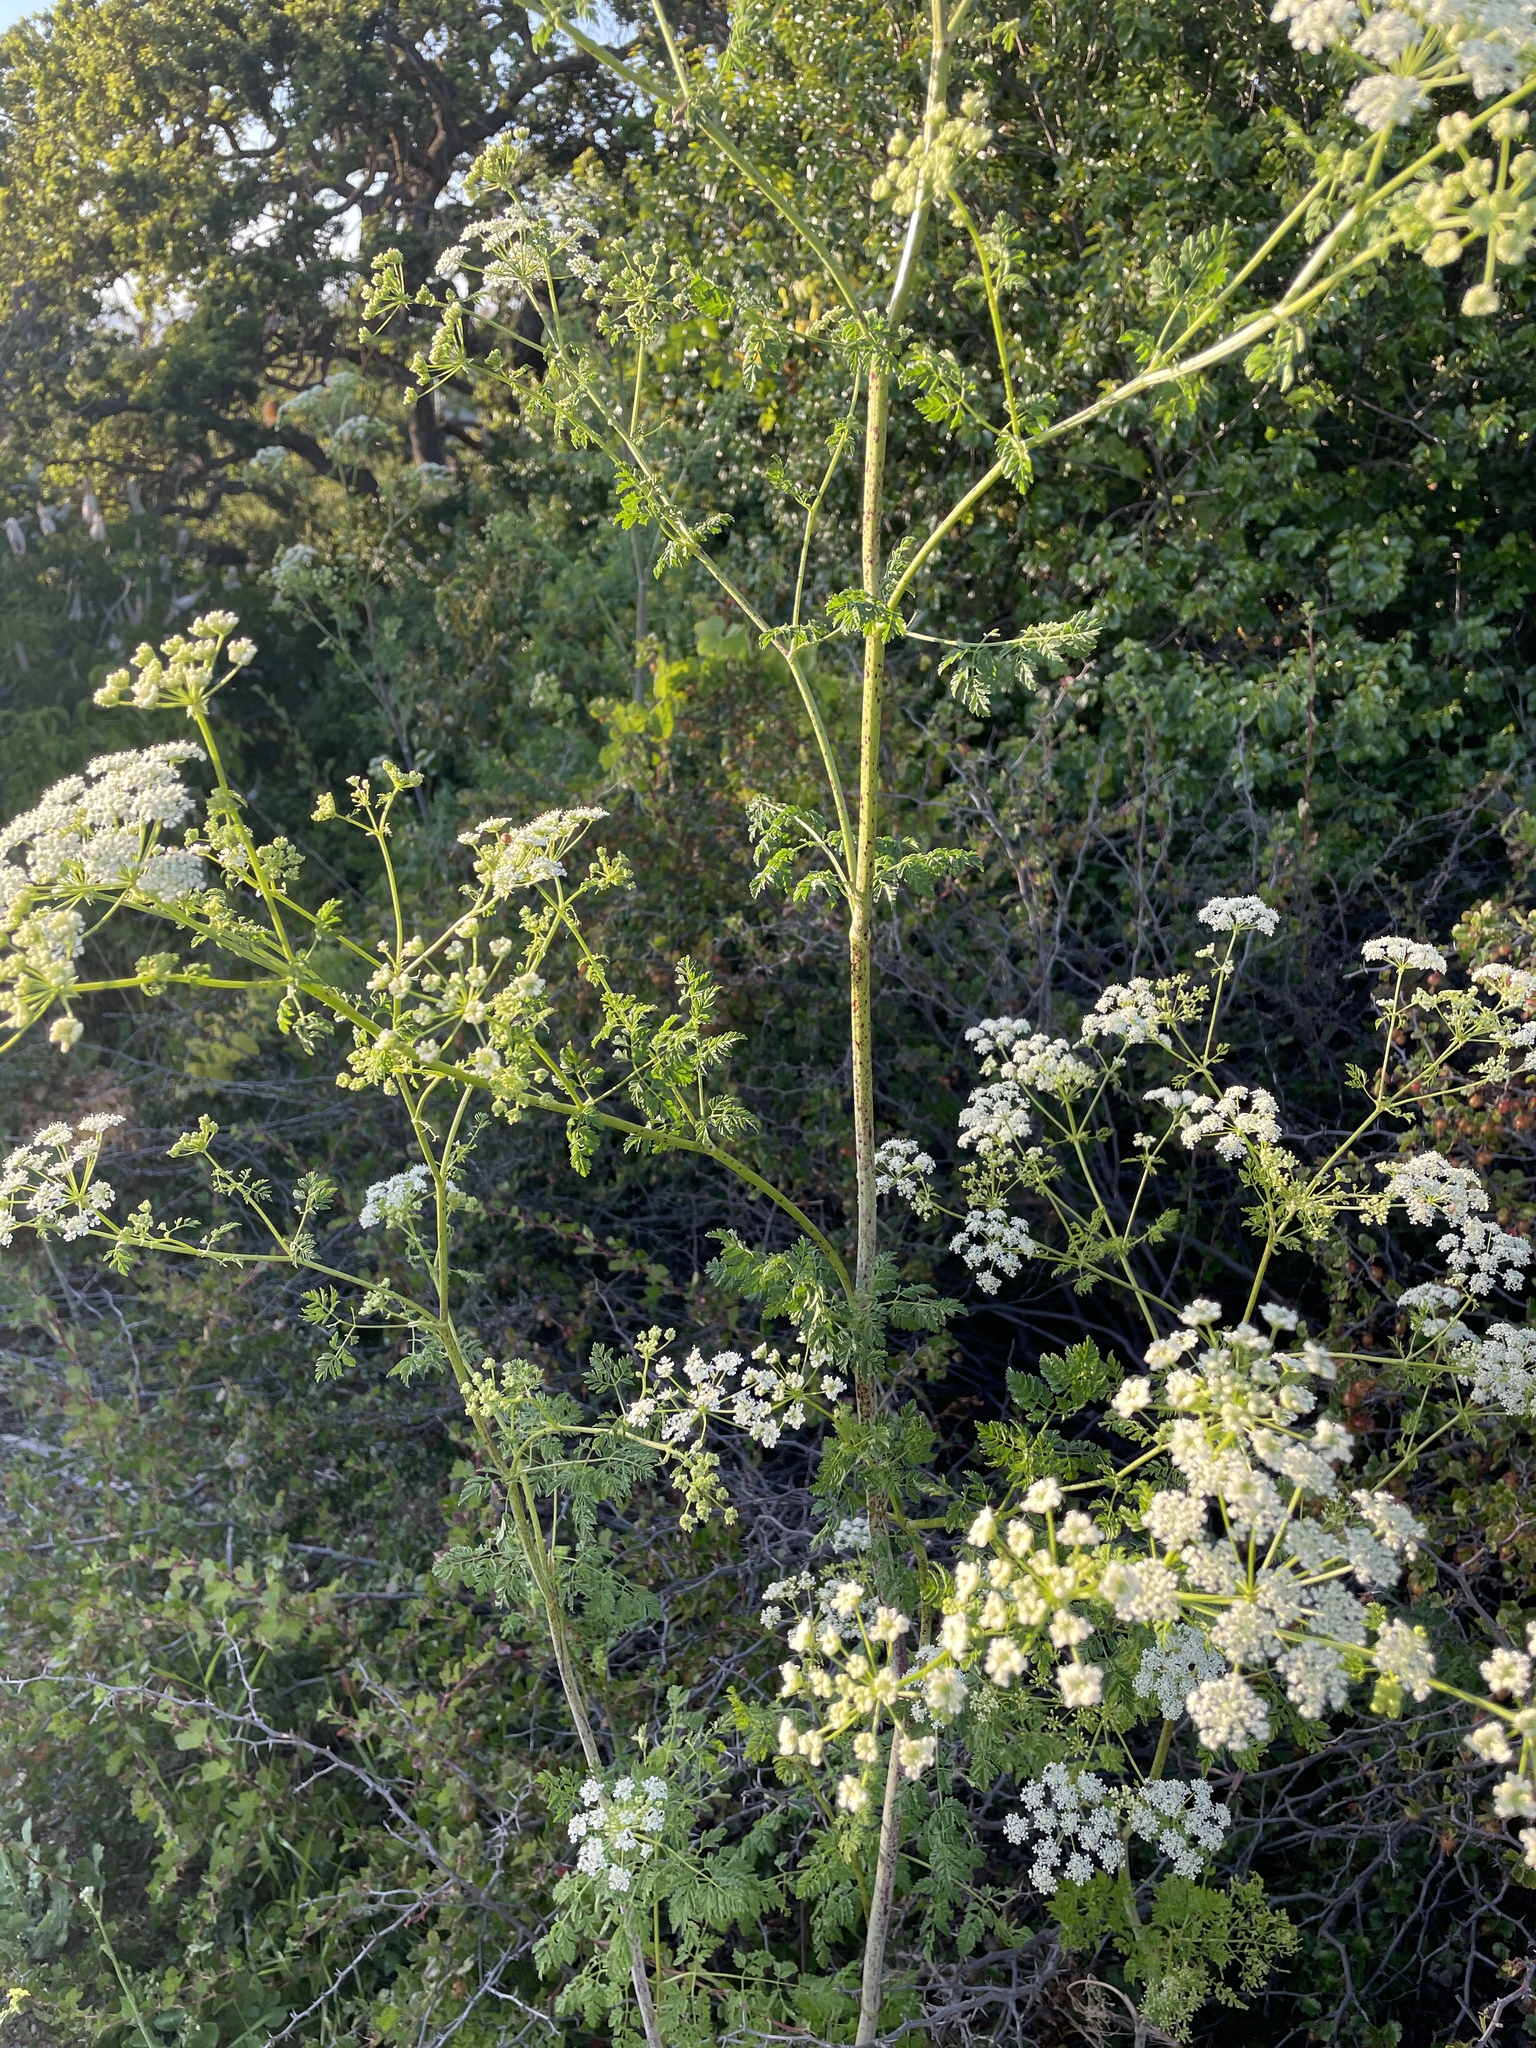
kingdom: Plantae
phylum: Tracheophyta
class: Magnoliopsida
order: Apiales
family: Apiaceae
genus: Conium
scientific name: Conium maculatum
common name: Hemlock
